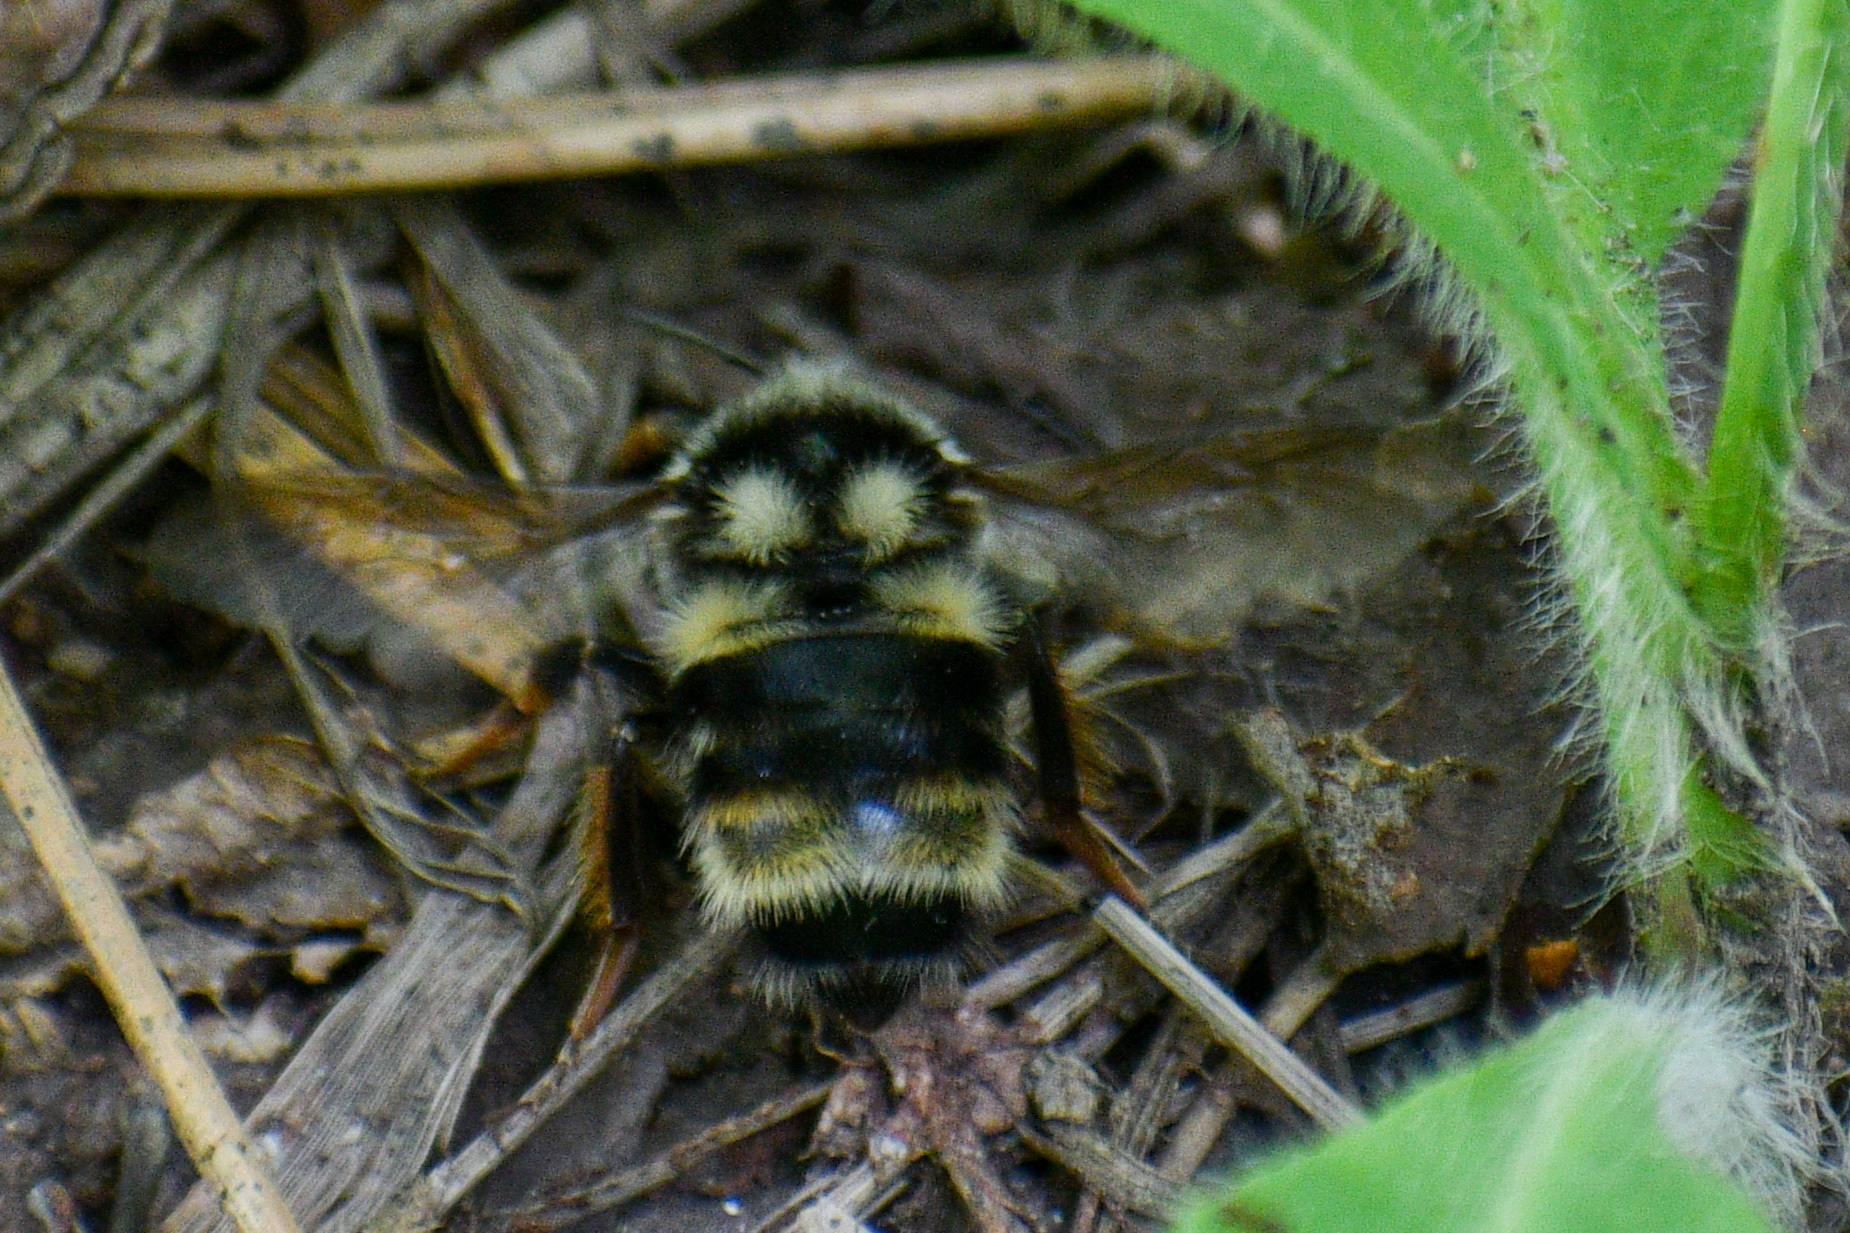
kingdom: Animalia
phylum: Arthropoda
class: Insecta
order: Hymenoptera
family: Apidae
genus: Bombus
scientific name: Bombus vancouverensis
